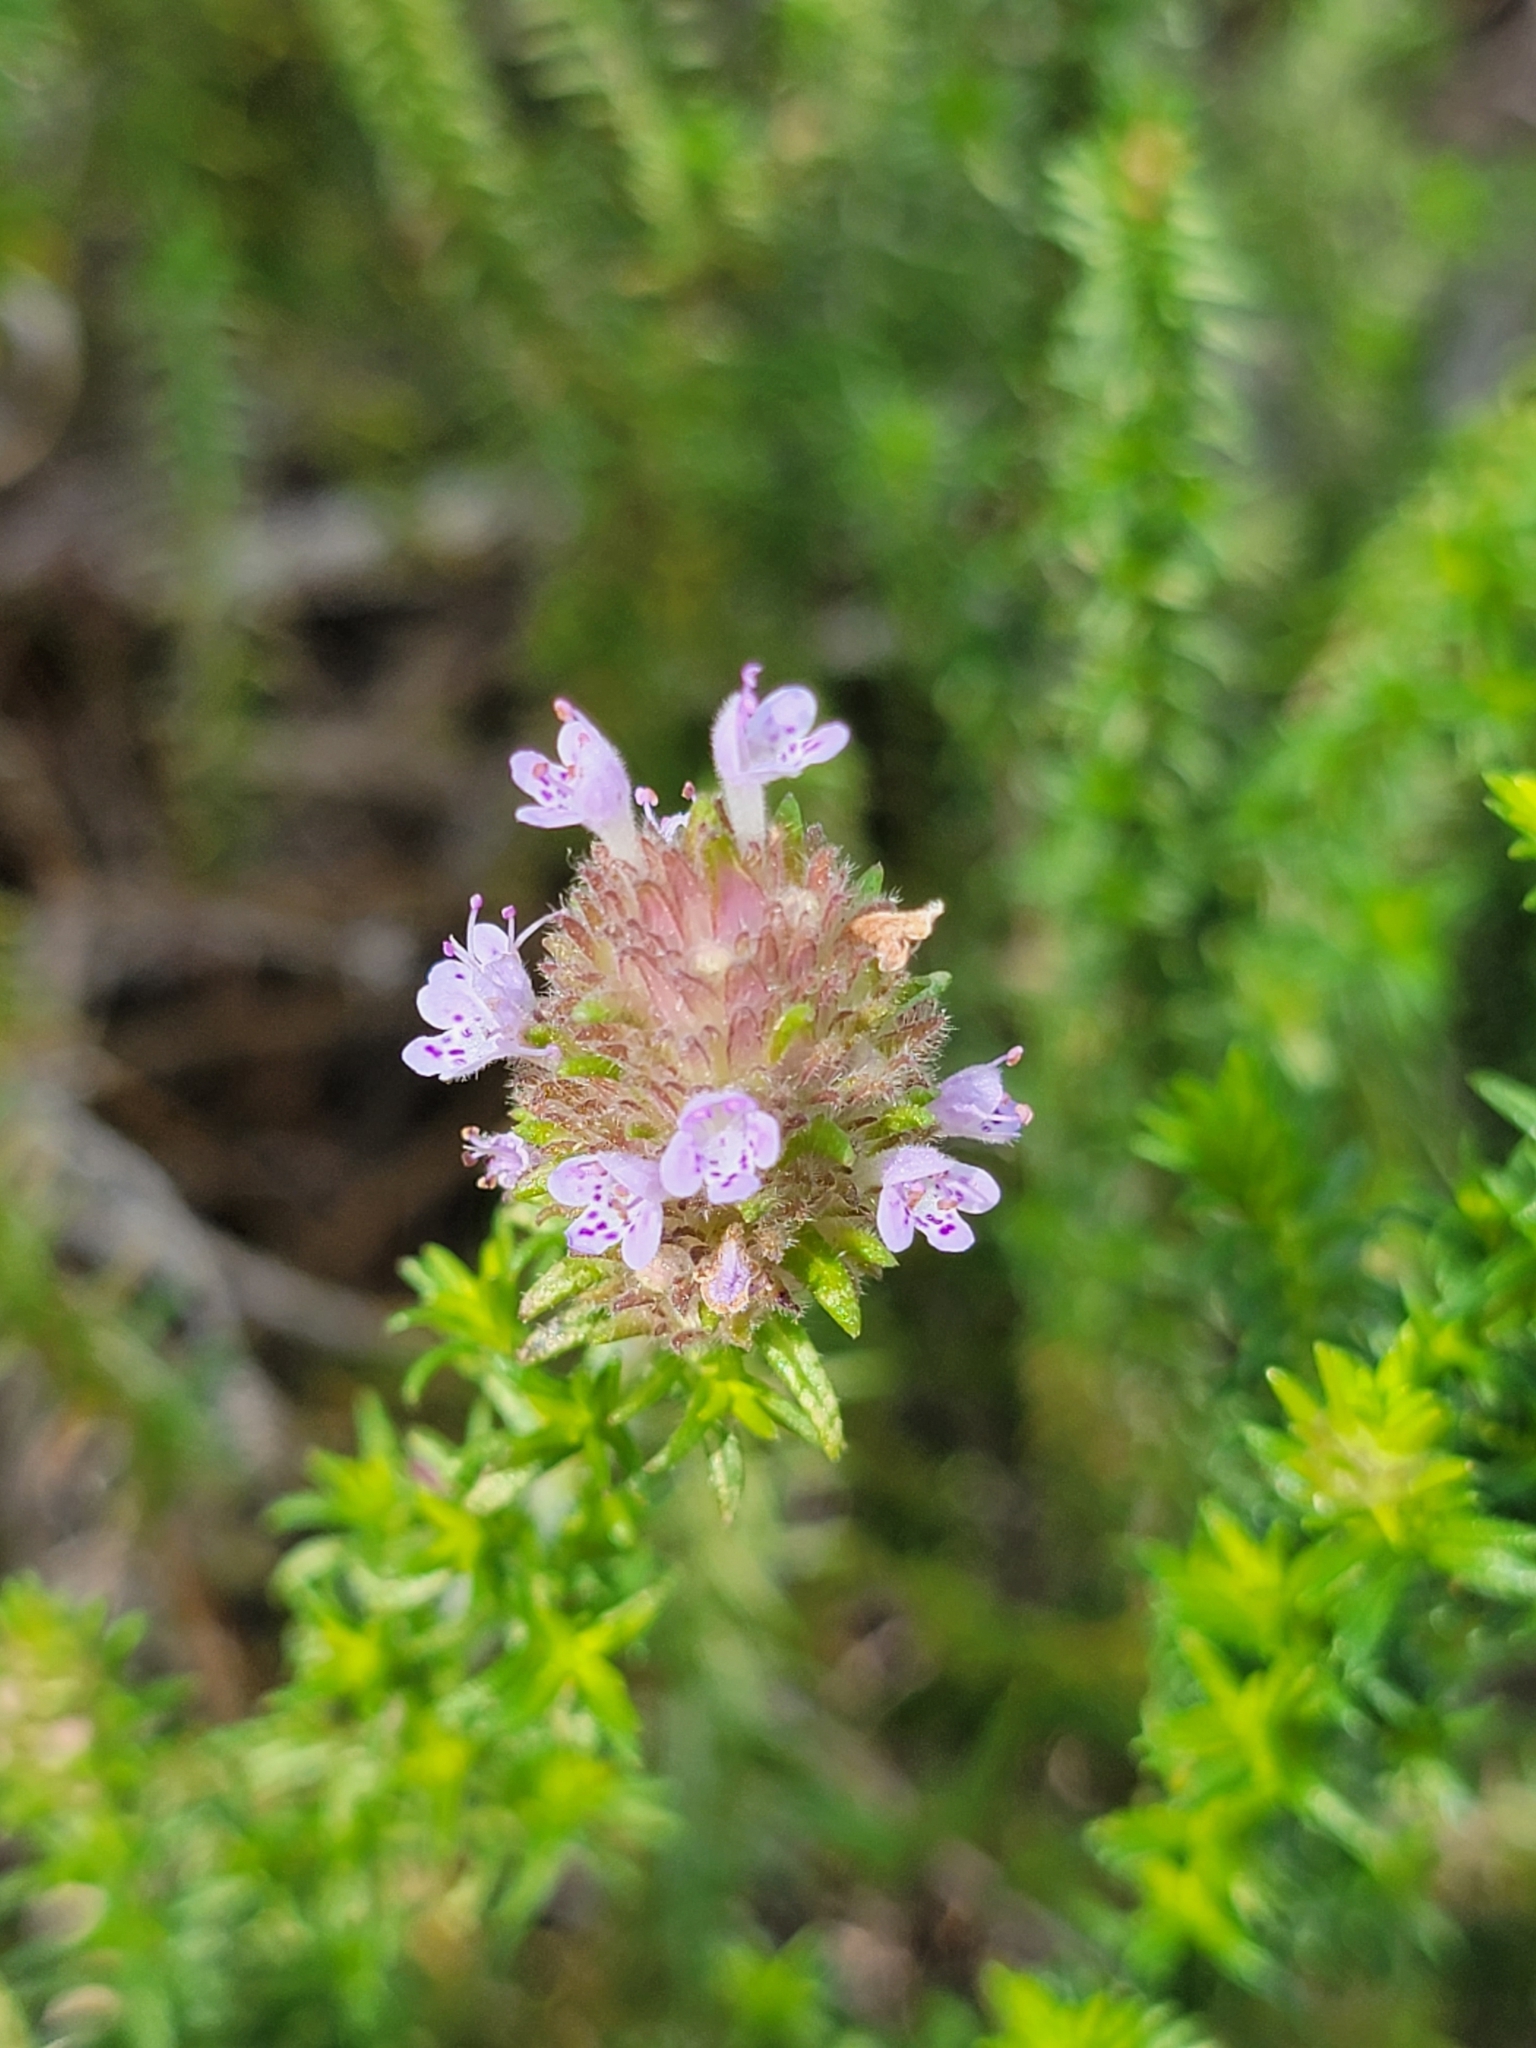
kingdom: Plantae
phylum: Tracheophyta
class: Magnoliopsida
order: Lamiales
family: Lamiaceae
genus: Piloblephis
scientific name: Piloblephis rigida
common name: Wild pennyroyal
